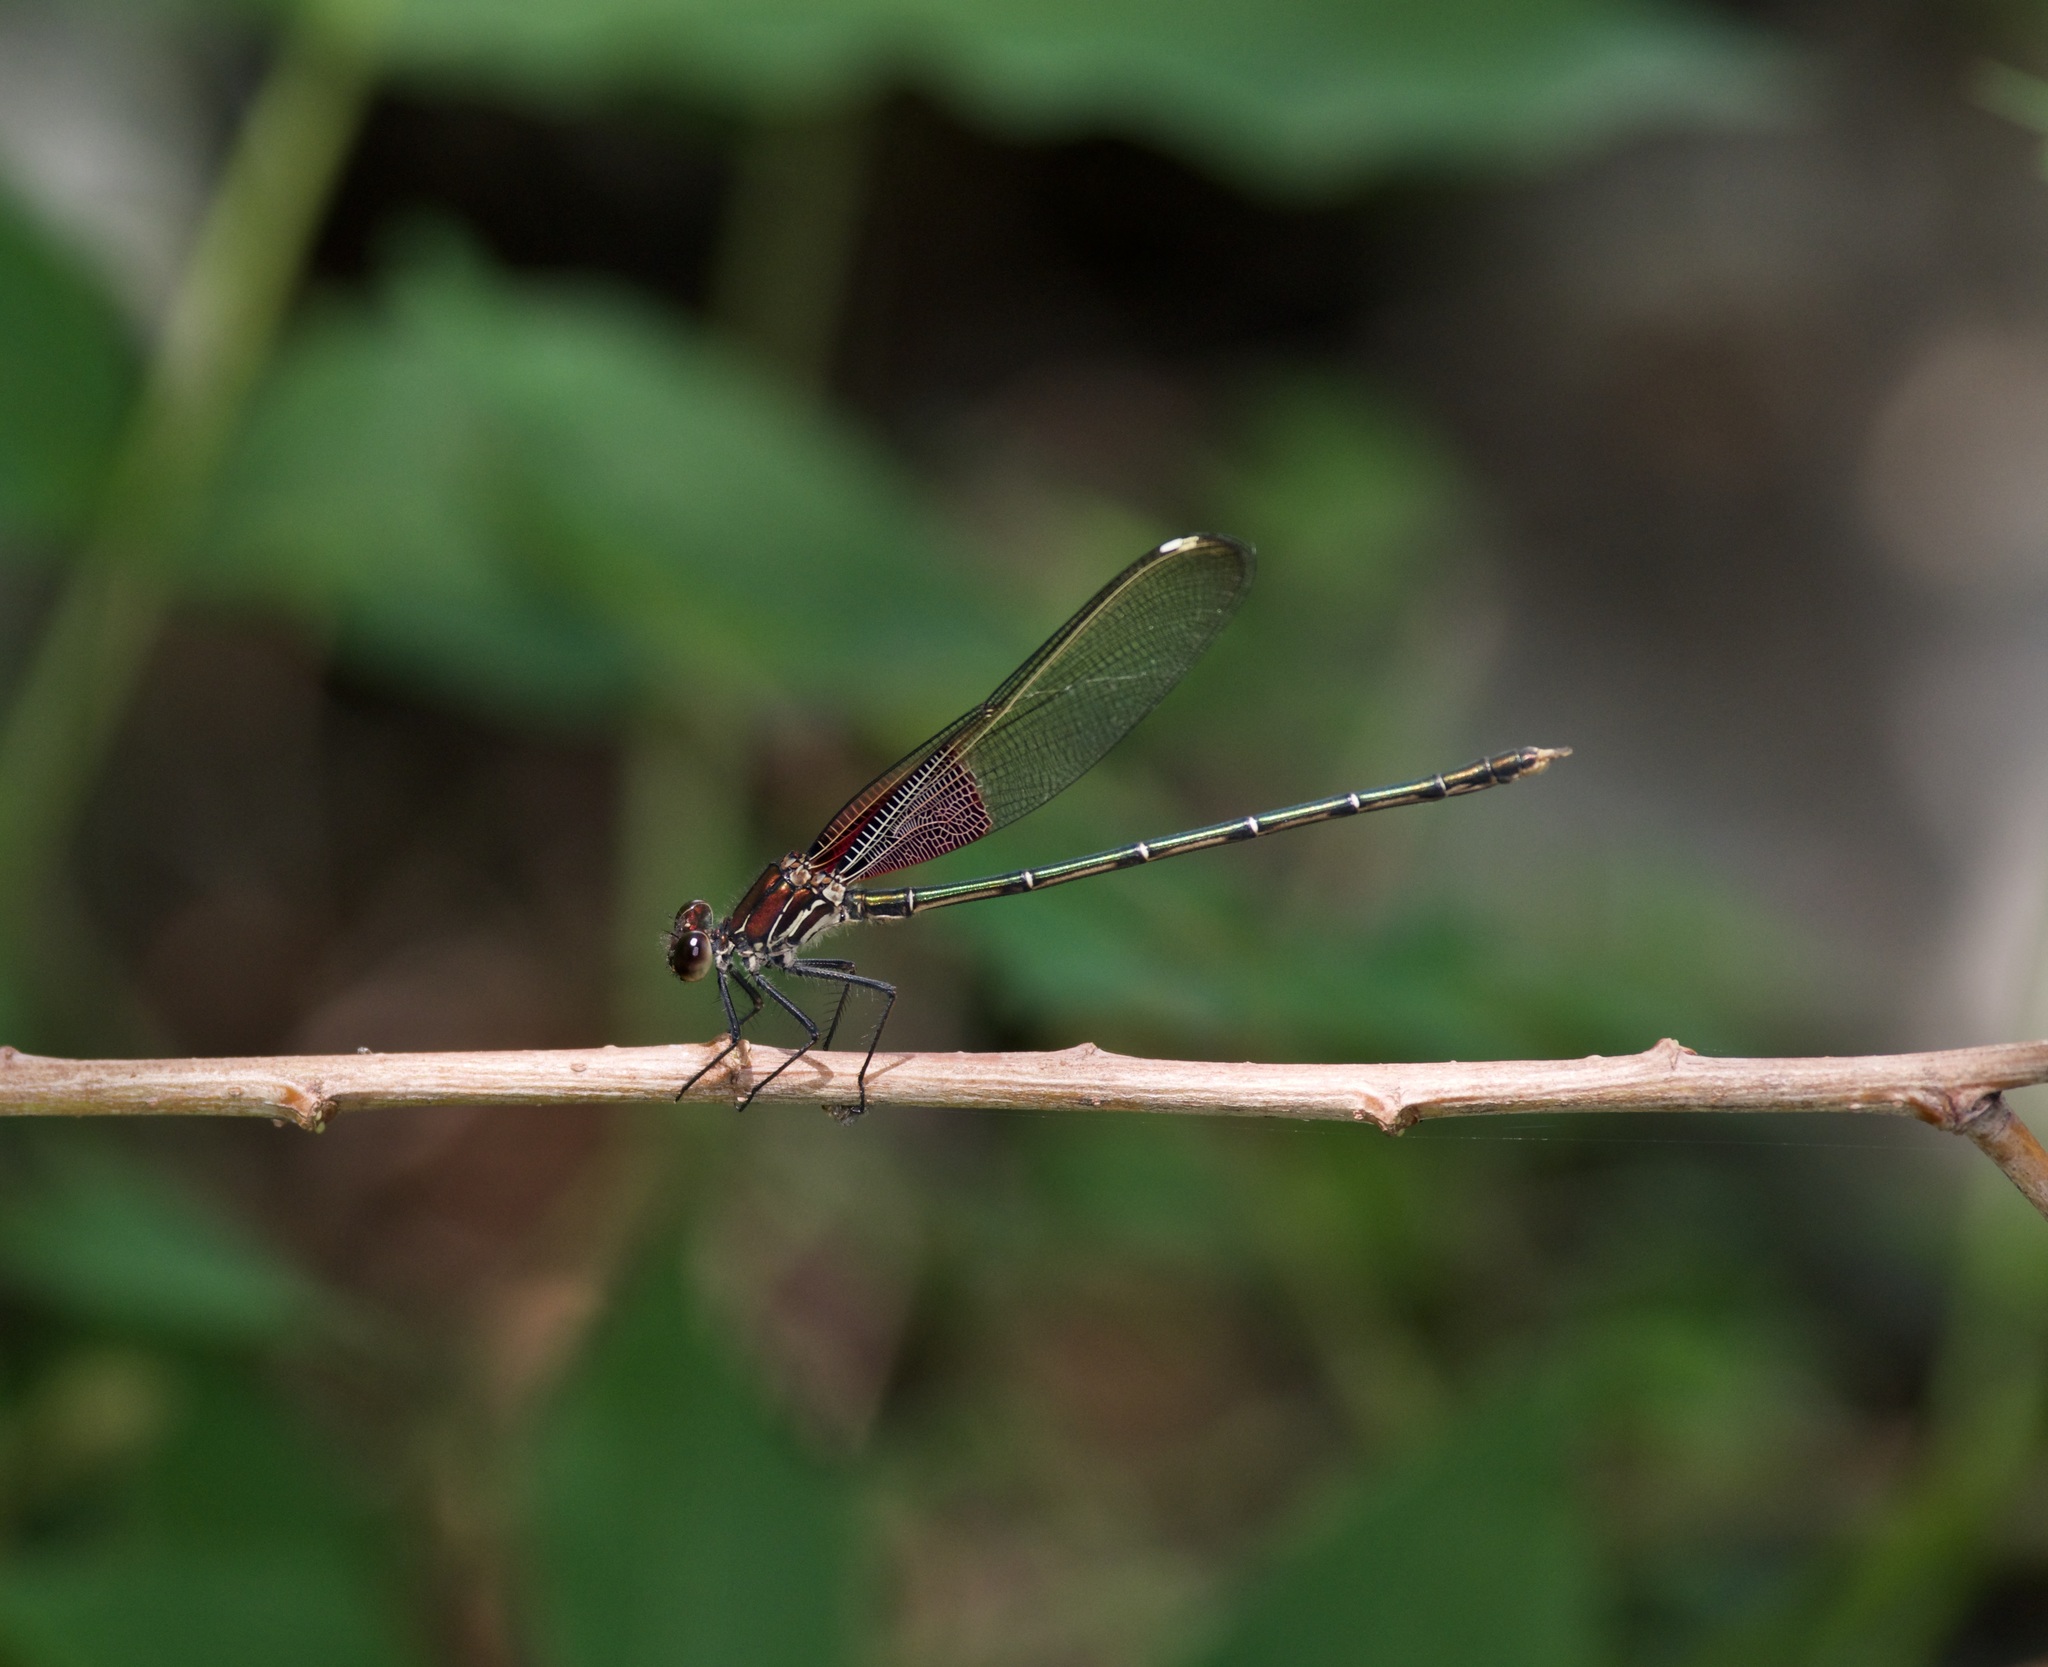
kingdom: Animalia
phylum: Arthropoda
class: Insecta
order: Odonata
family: Calopterygidae
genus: Hetaerina
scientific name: Hetaerina americana
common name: American rubyspot
